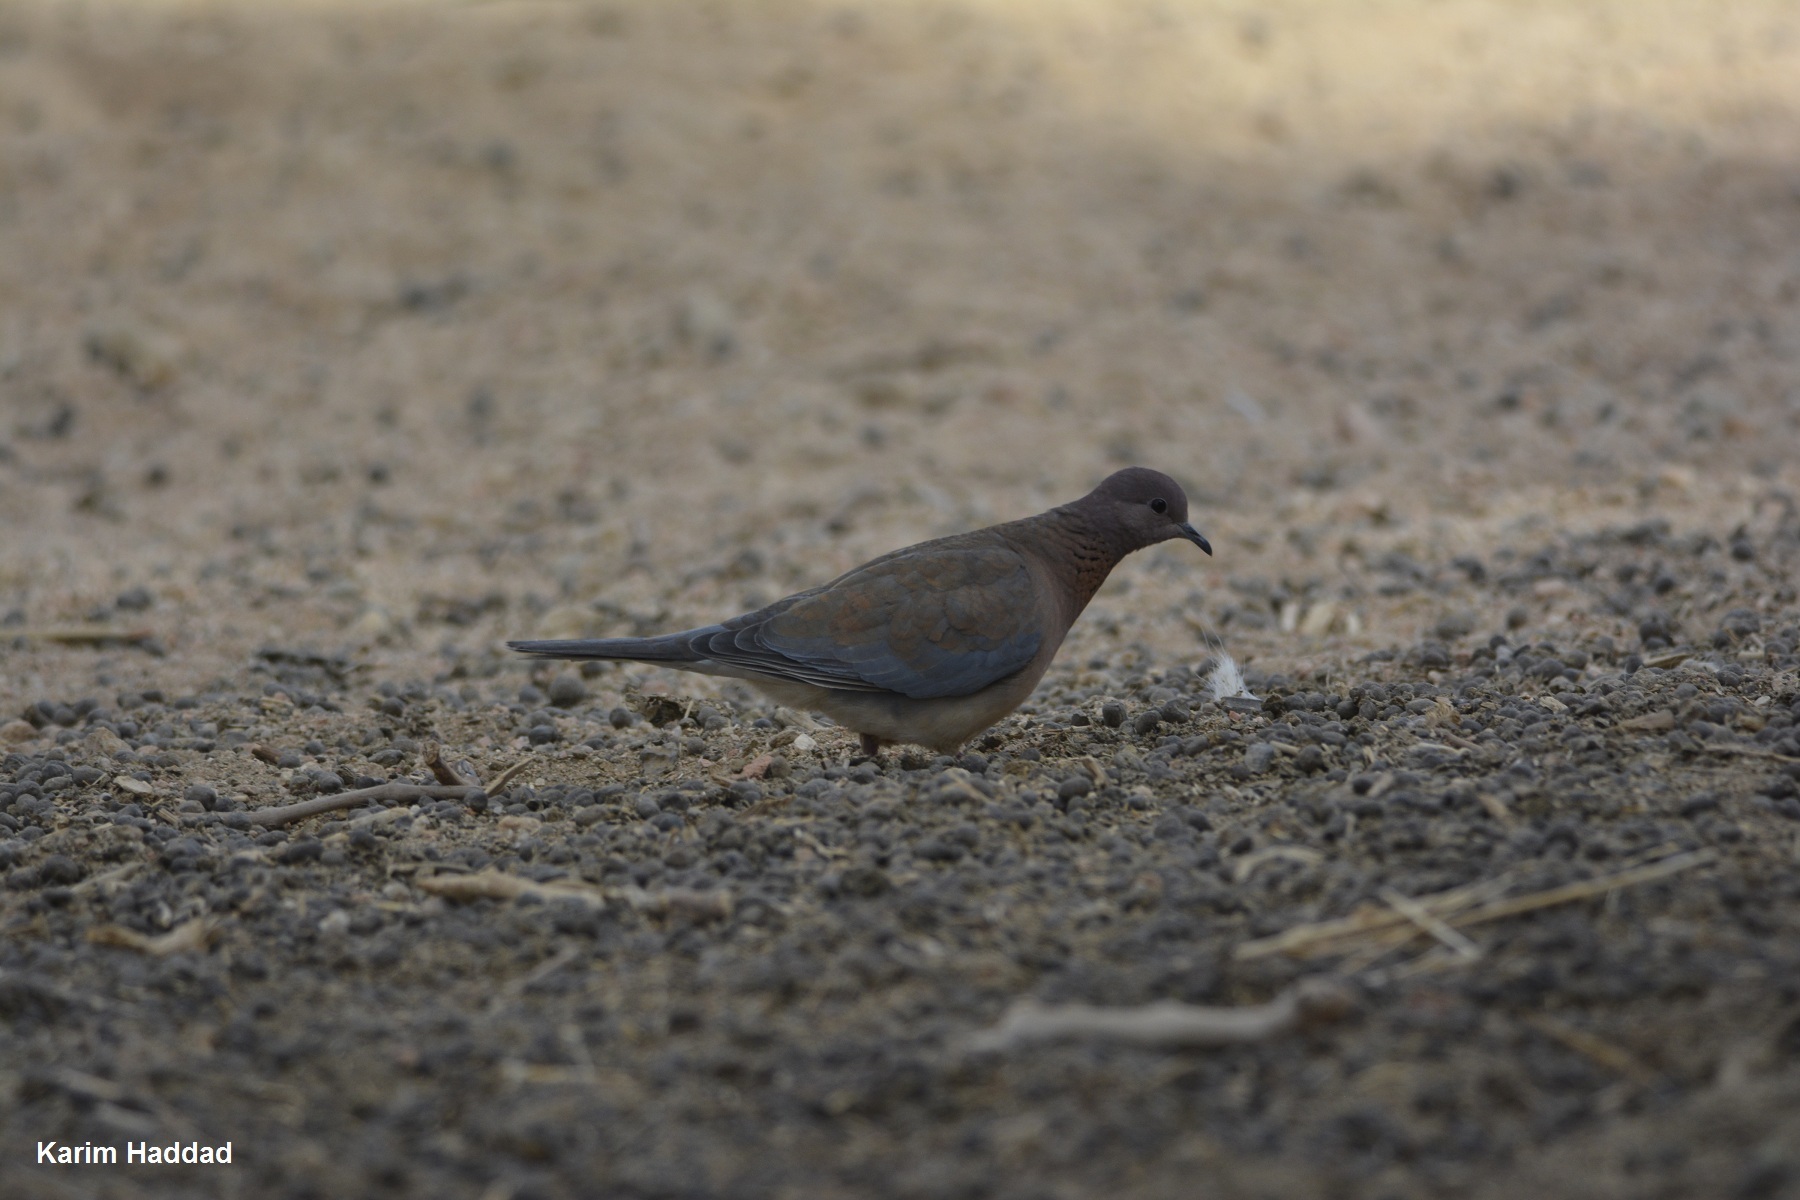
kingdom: Animalia
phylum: Chordata
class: Aves
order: Columbiformes
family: Columbidae
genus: Spilopelia
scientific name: Spilopelia senegalensis
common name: Laughing dove
